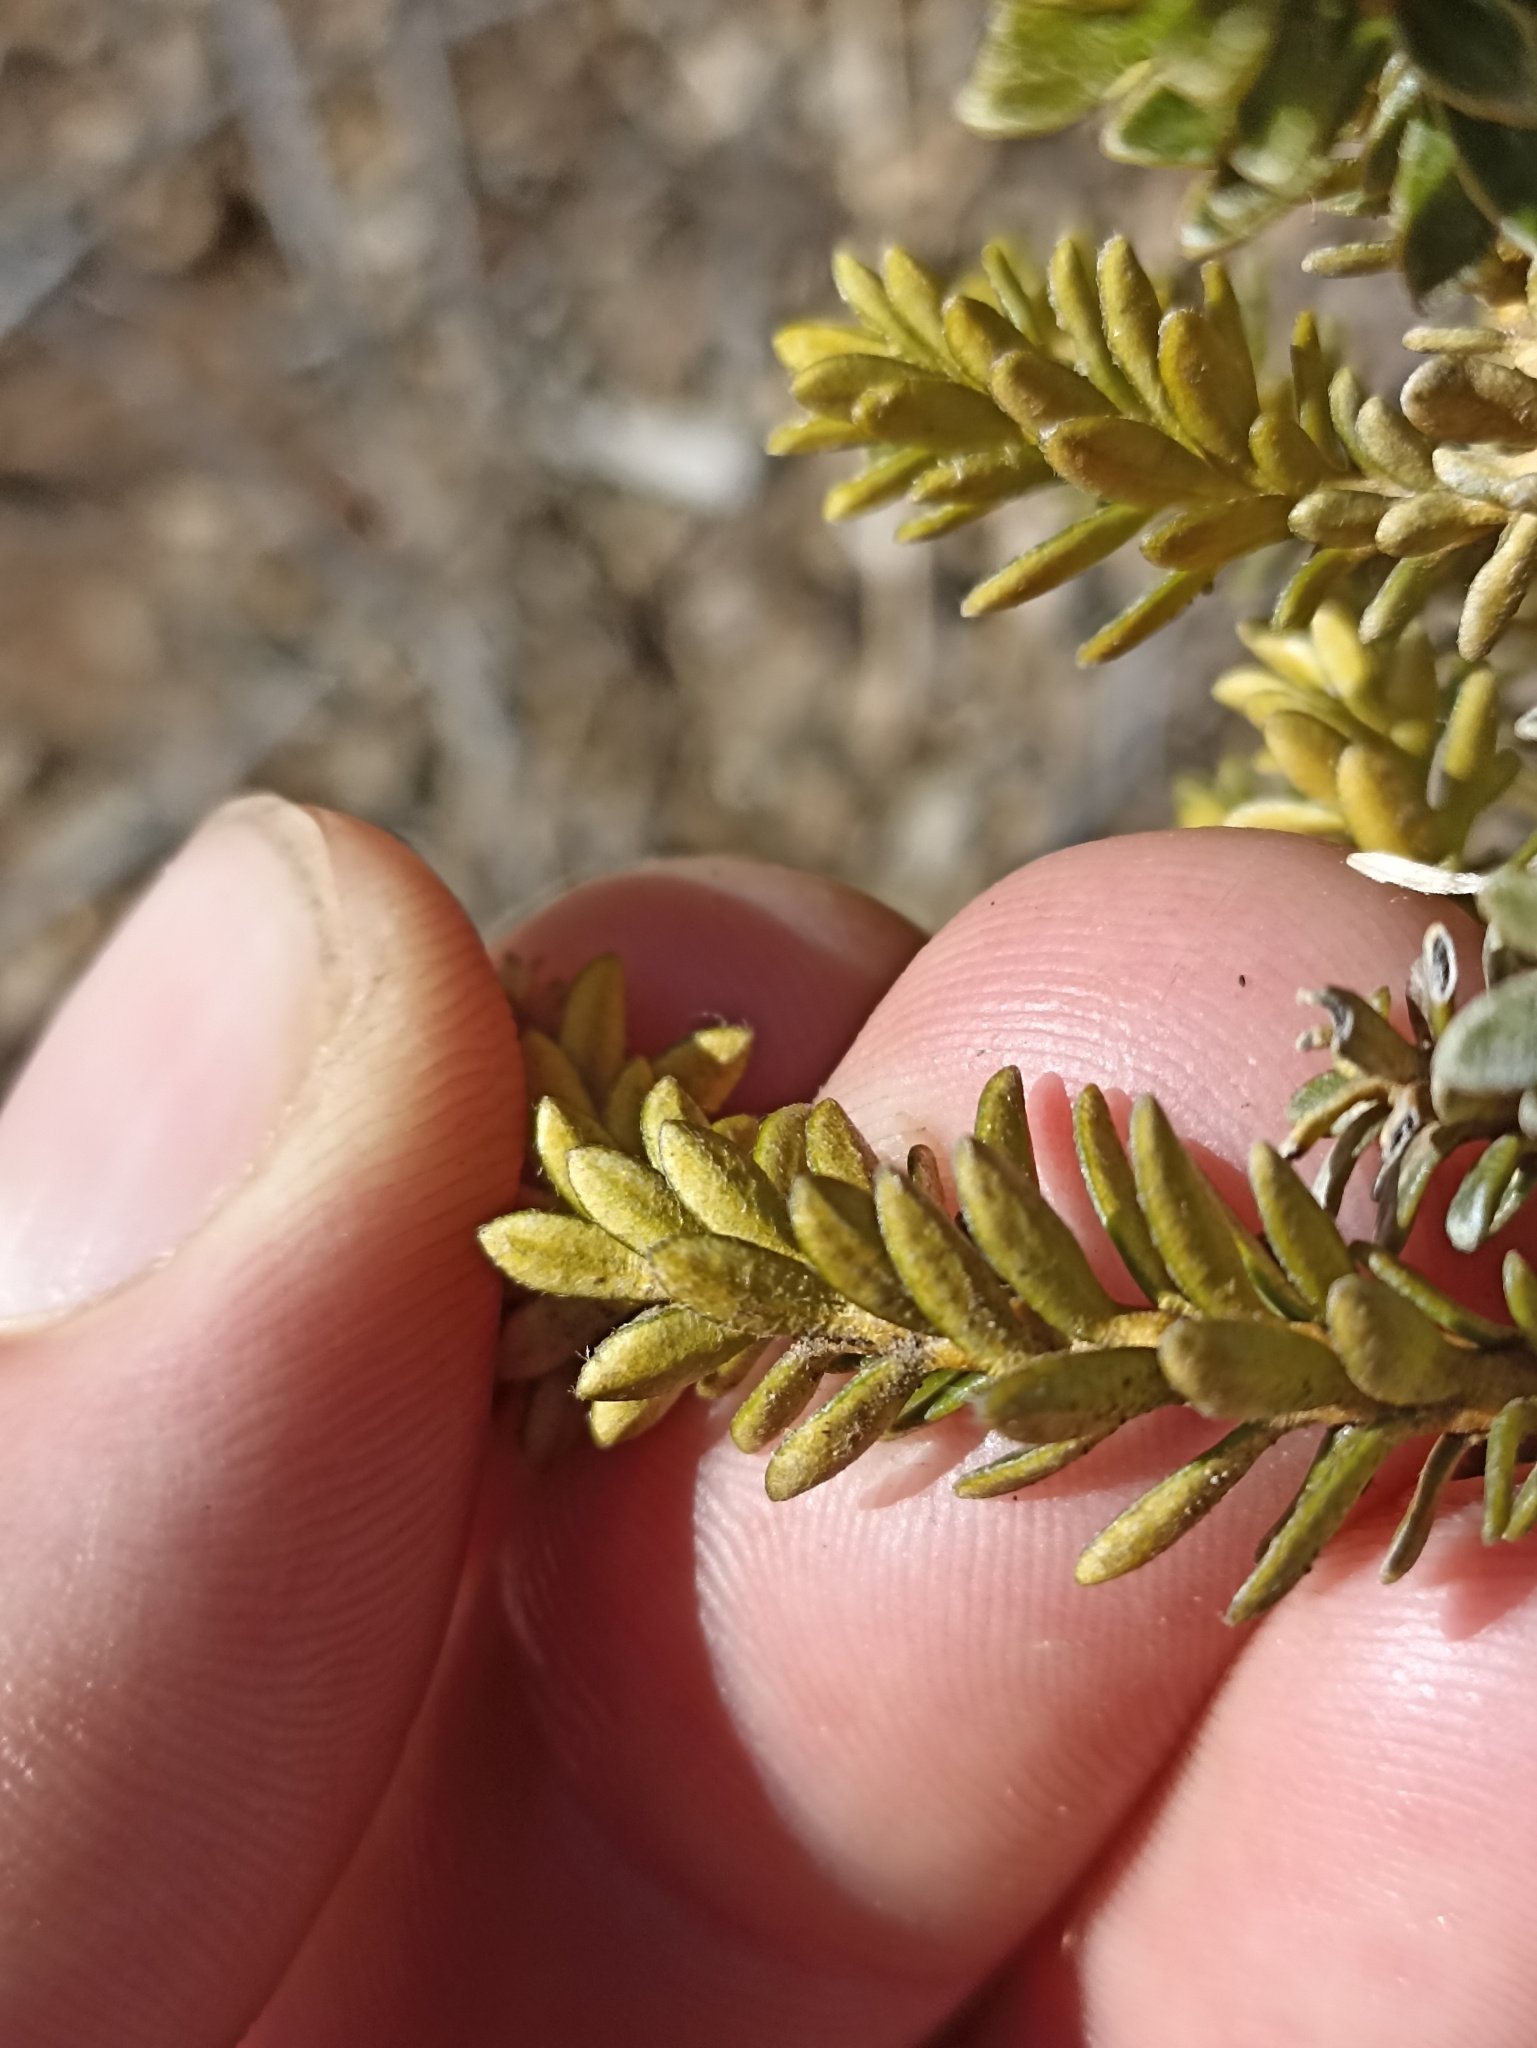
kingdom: Plantae
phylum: Tracheophyta
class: Magnoliopsida
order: Asterales
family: Asteraceae
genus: Ozothamnus
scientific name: Ozothamnus leptophyllus
